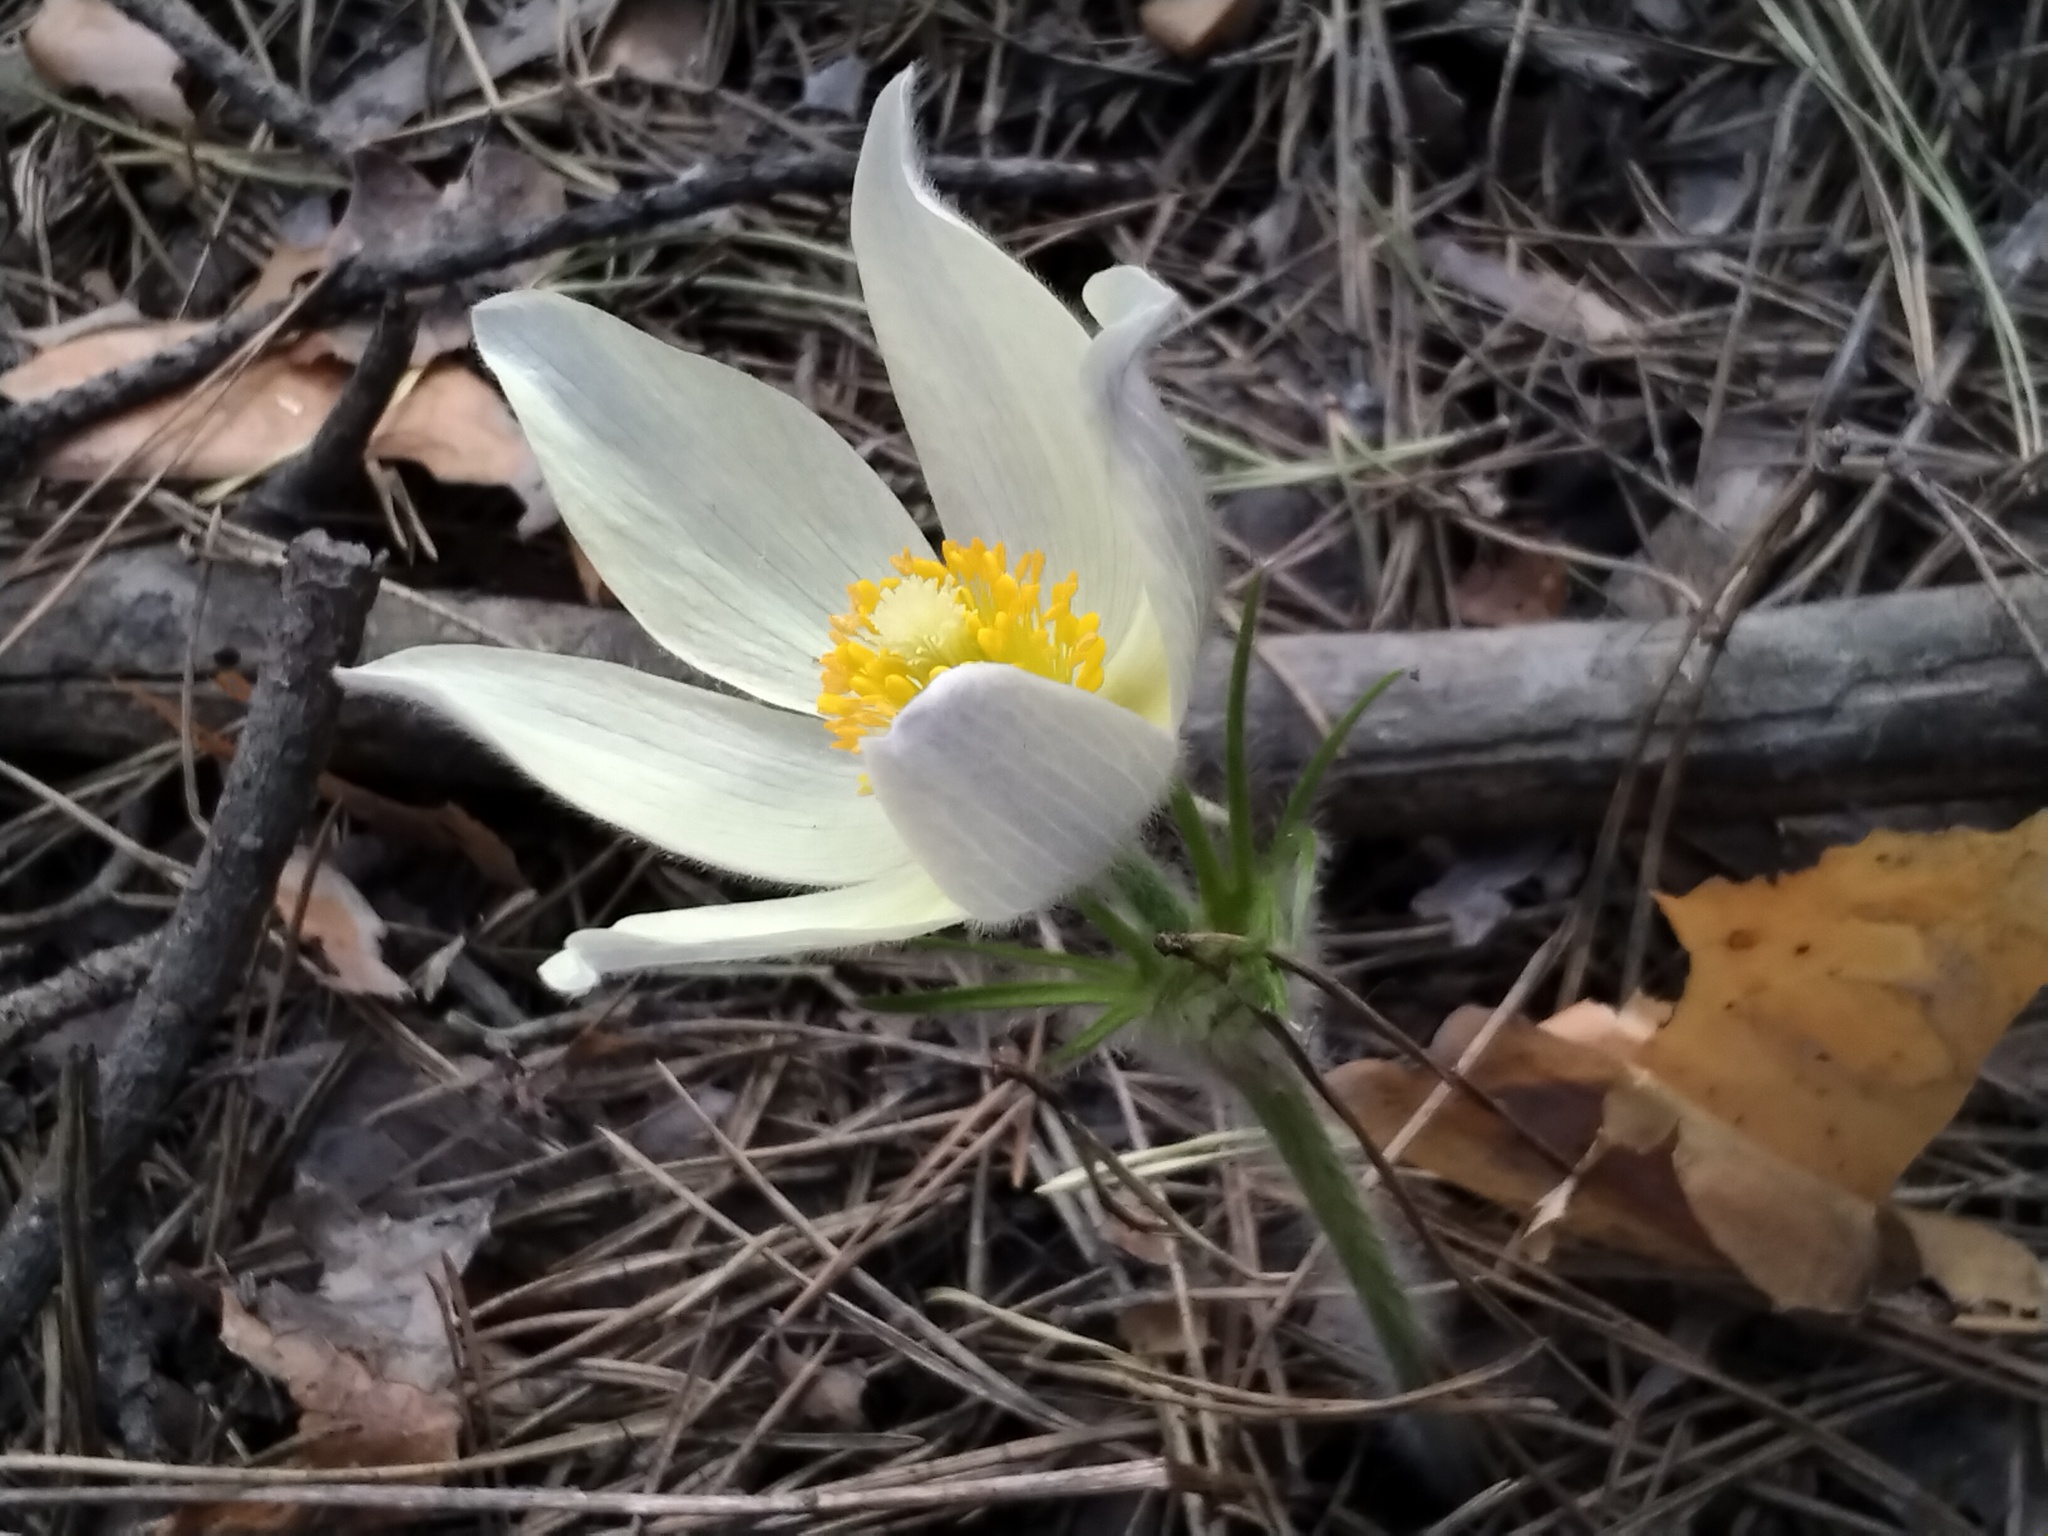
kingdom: Plantae
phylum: Tracheophyta
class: Magnoliopsida
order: Ranunculales
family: Ranunculaceae
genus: Pulsatilla
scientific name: Pulsatilla patens
